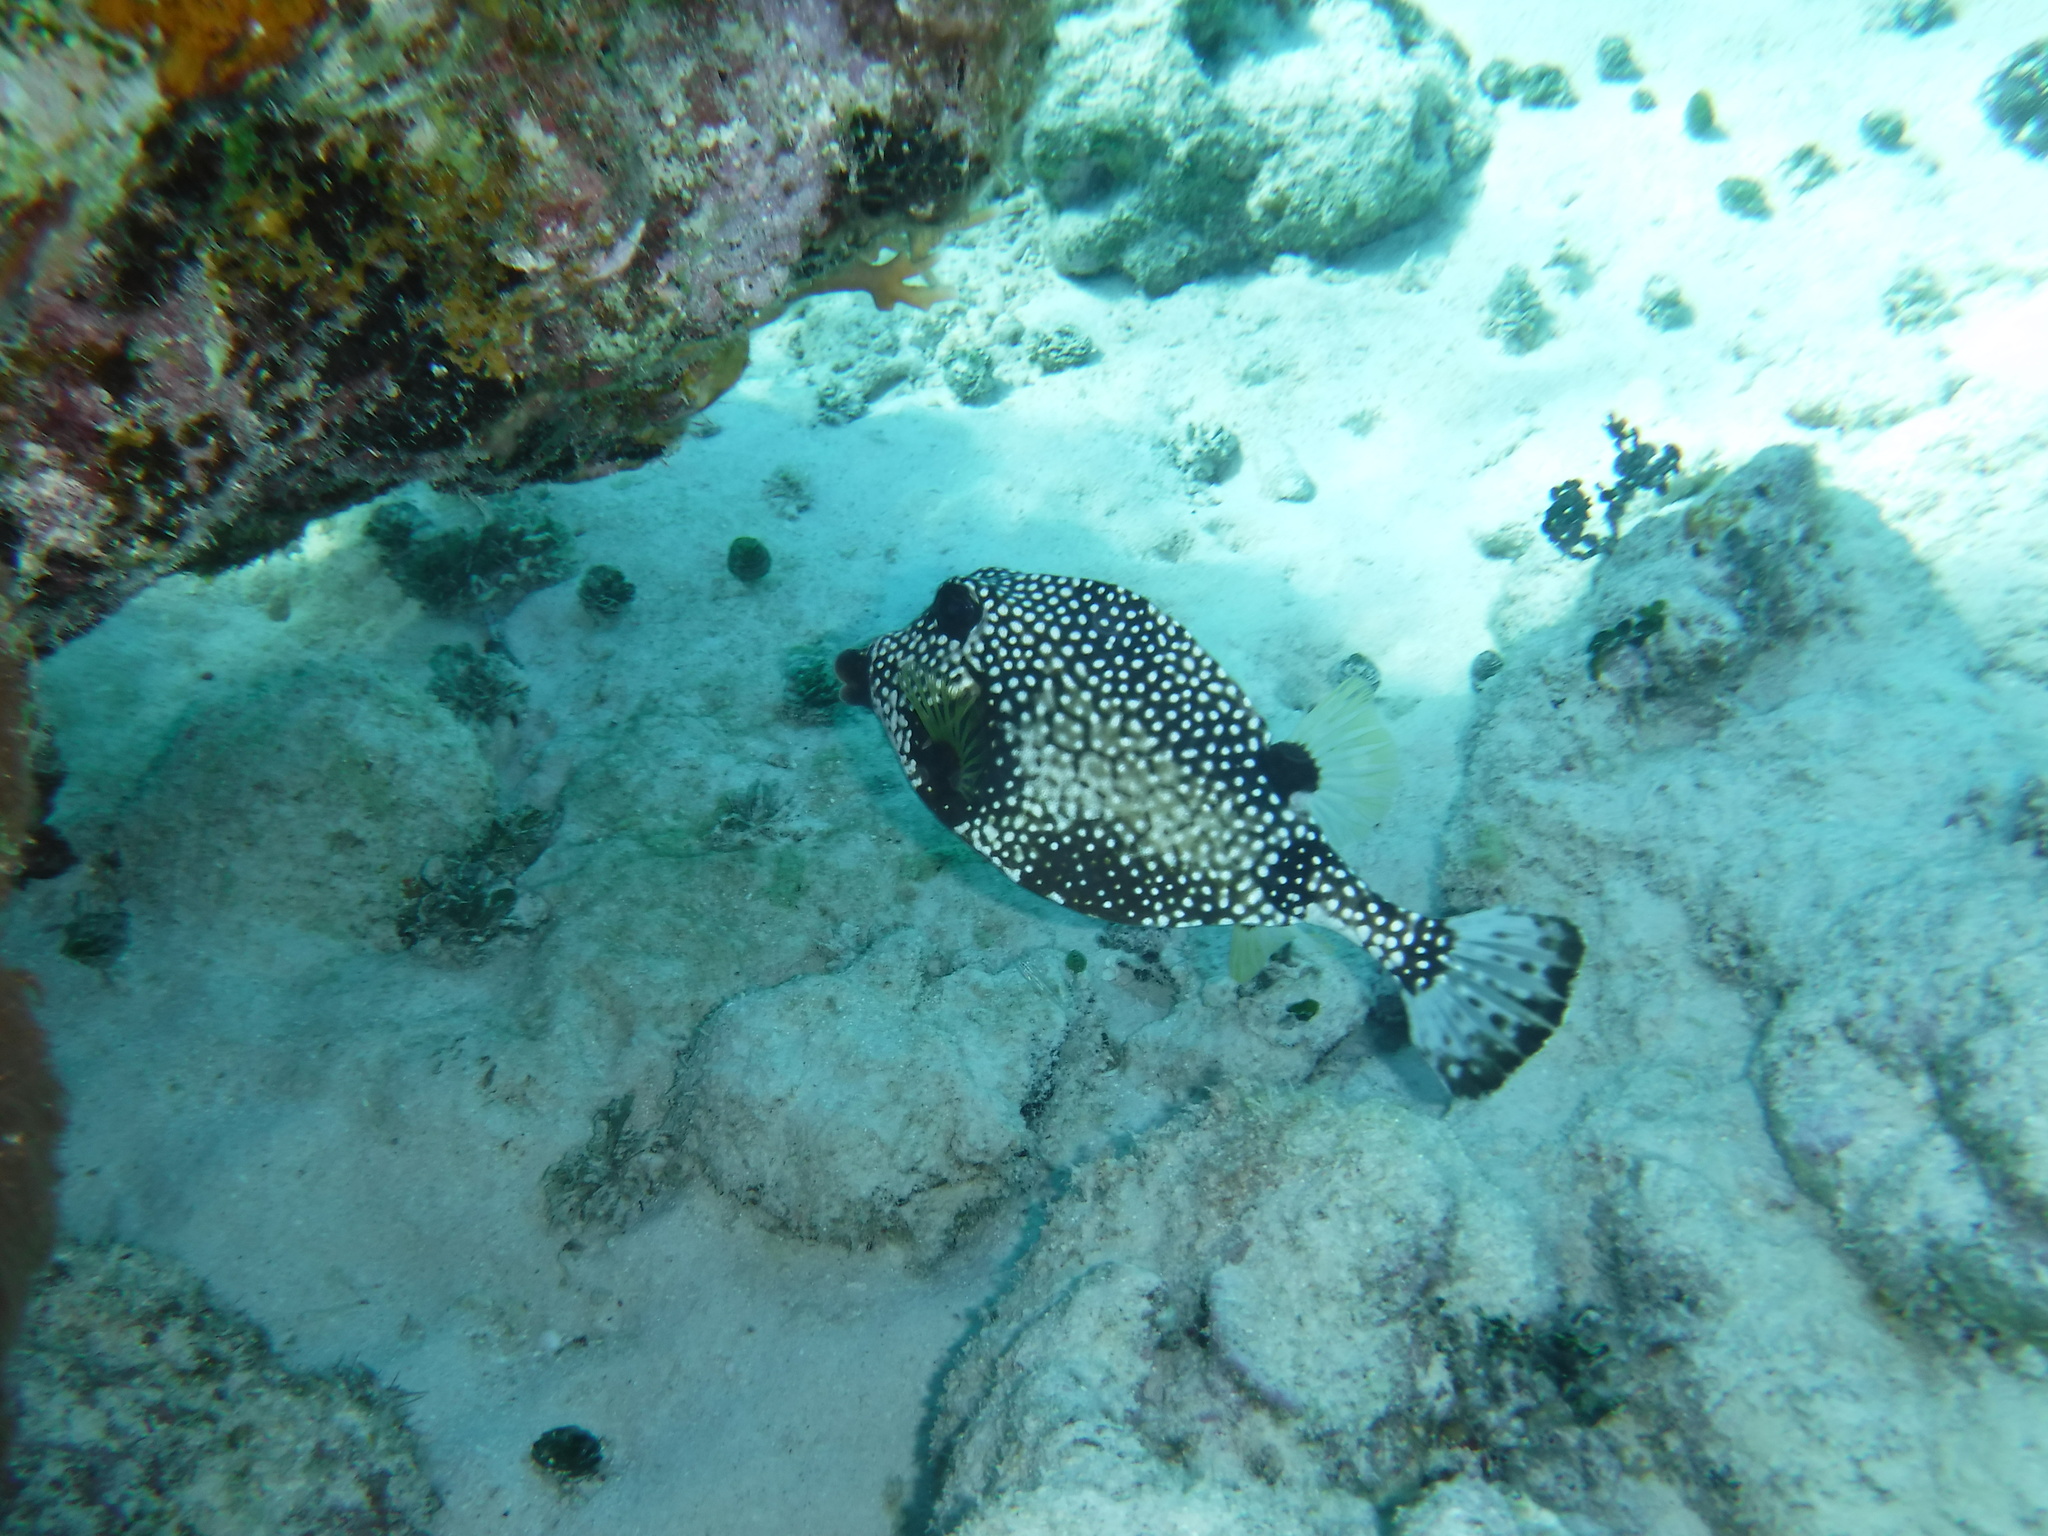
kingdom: Animalia
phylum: Chordata
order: Tetraodontiformes
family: Ostraciidae
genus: Lactophrys
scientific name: Lactophrys triqueter
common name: Smooth trunkfish
